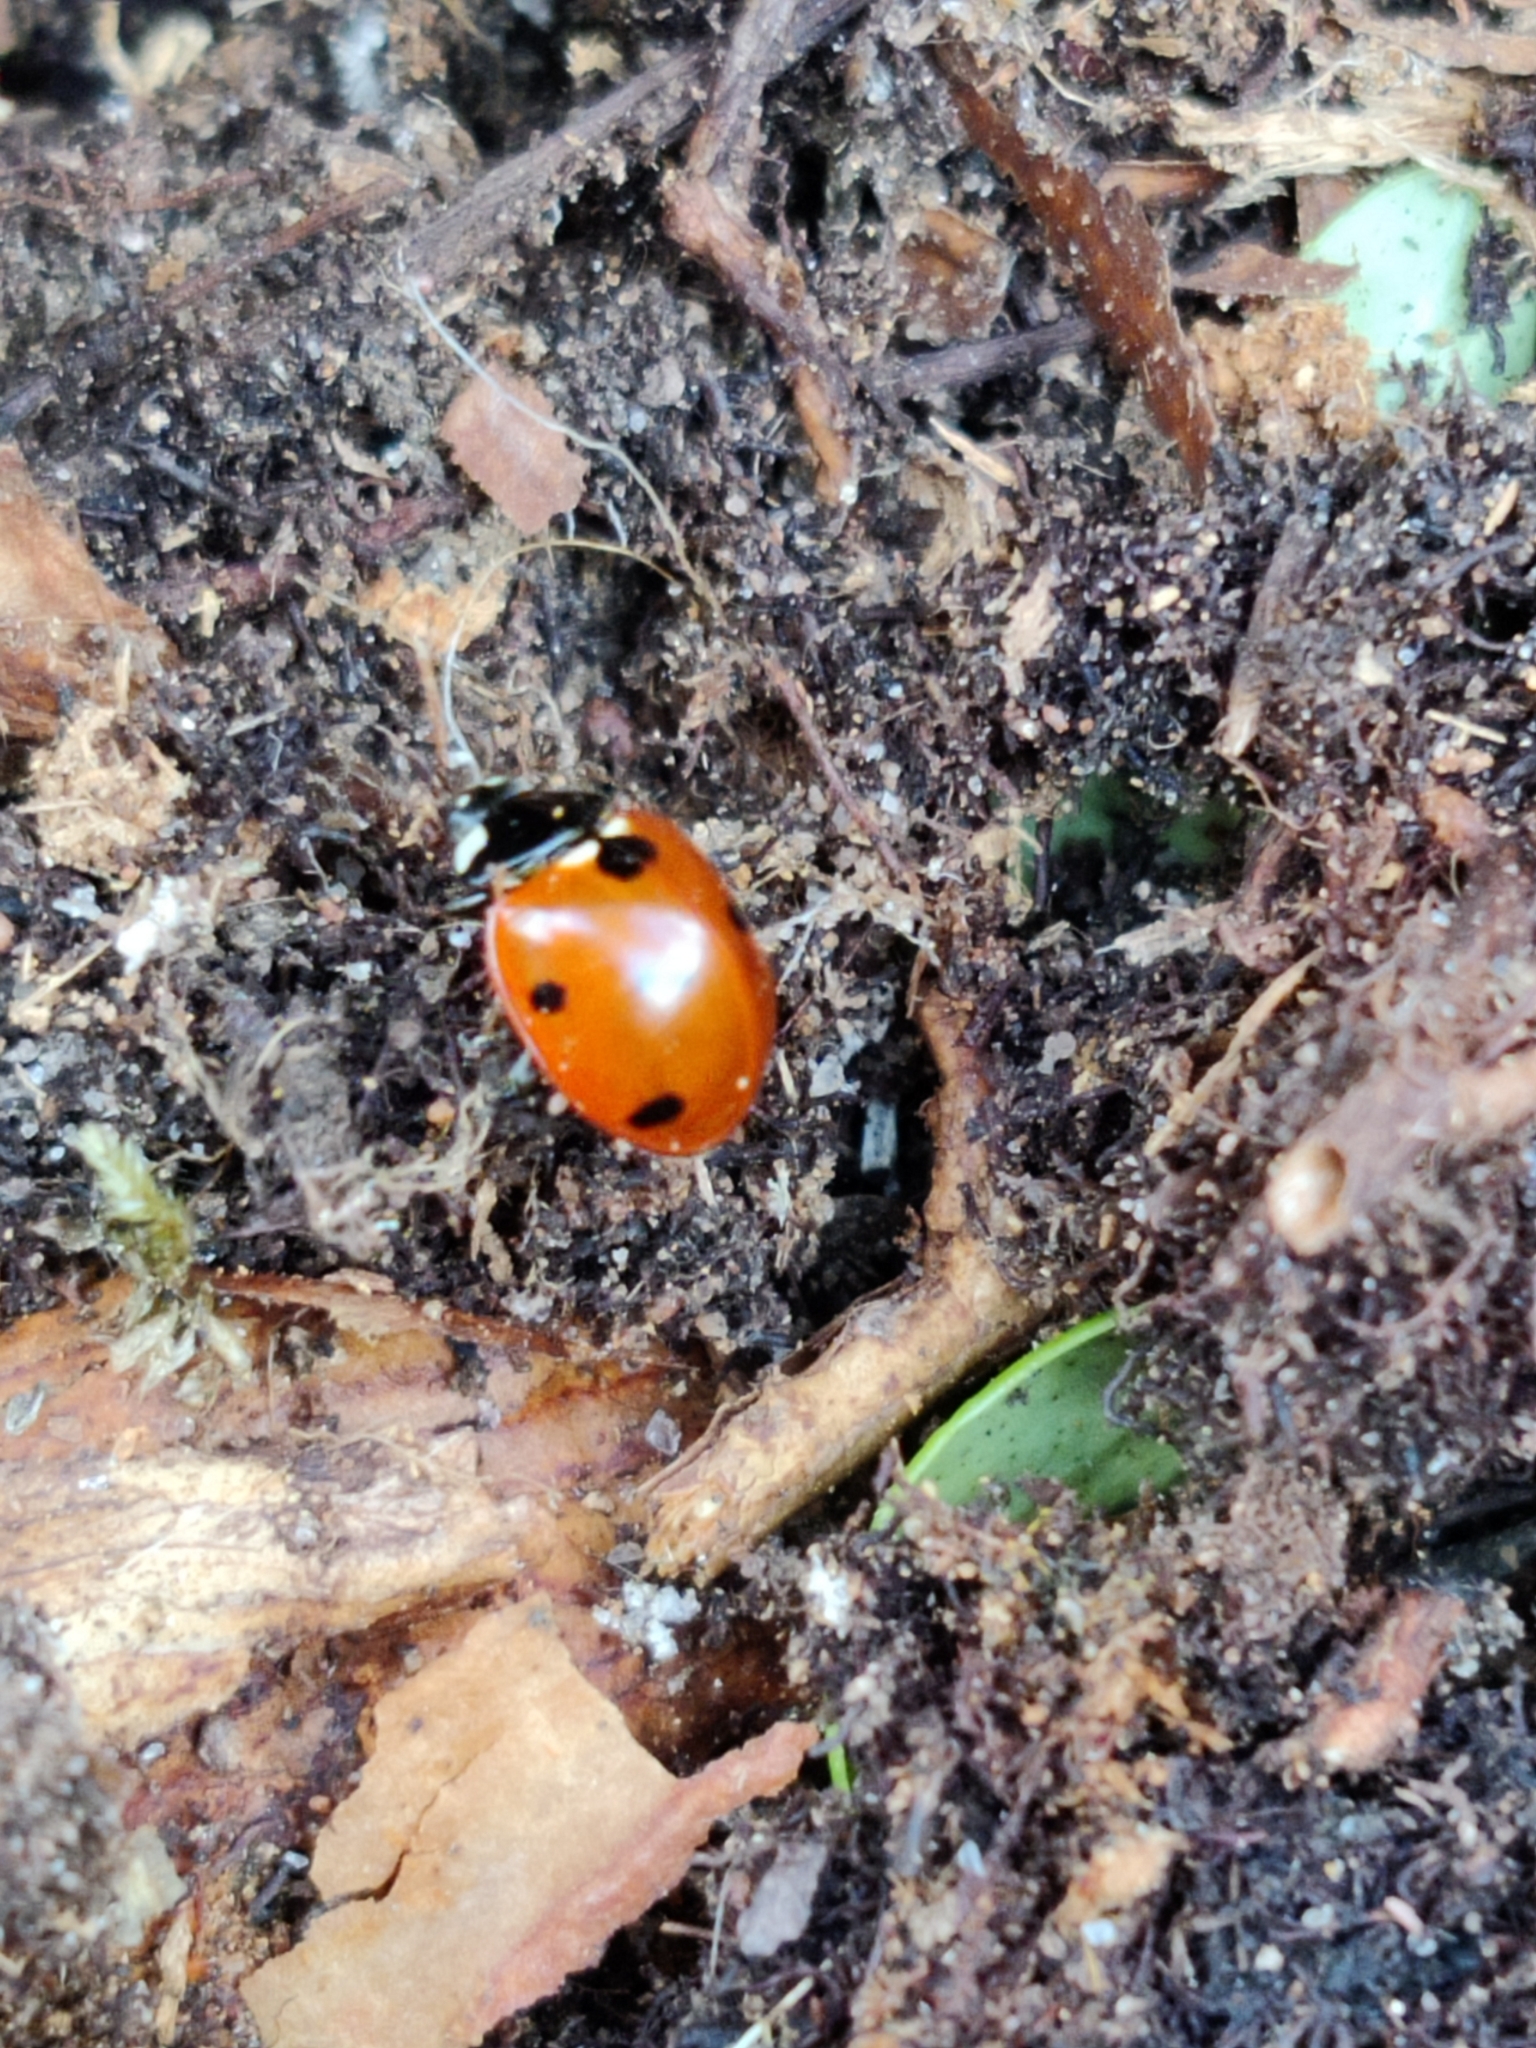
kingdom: Animalia
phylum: Arthropoda
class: Insecta
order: Coleoptera
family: Coccinellidae
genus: Coccinella
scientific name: Coccinella septempunctata
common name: Sevenspotted lady beetle
